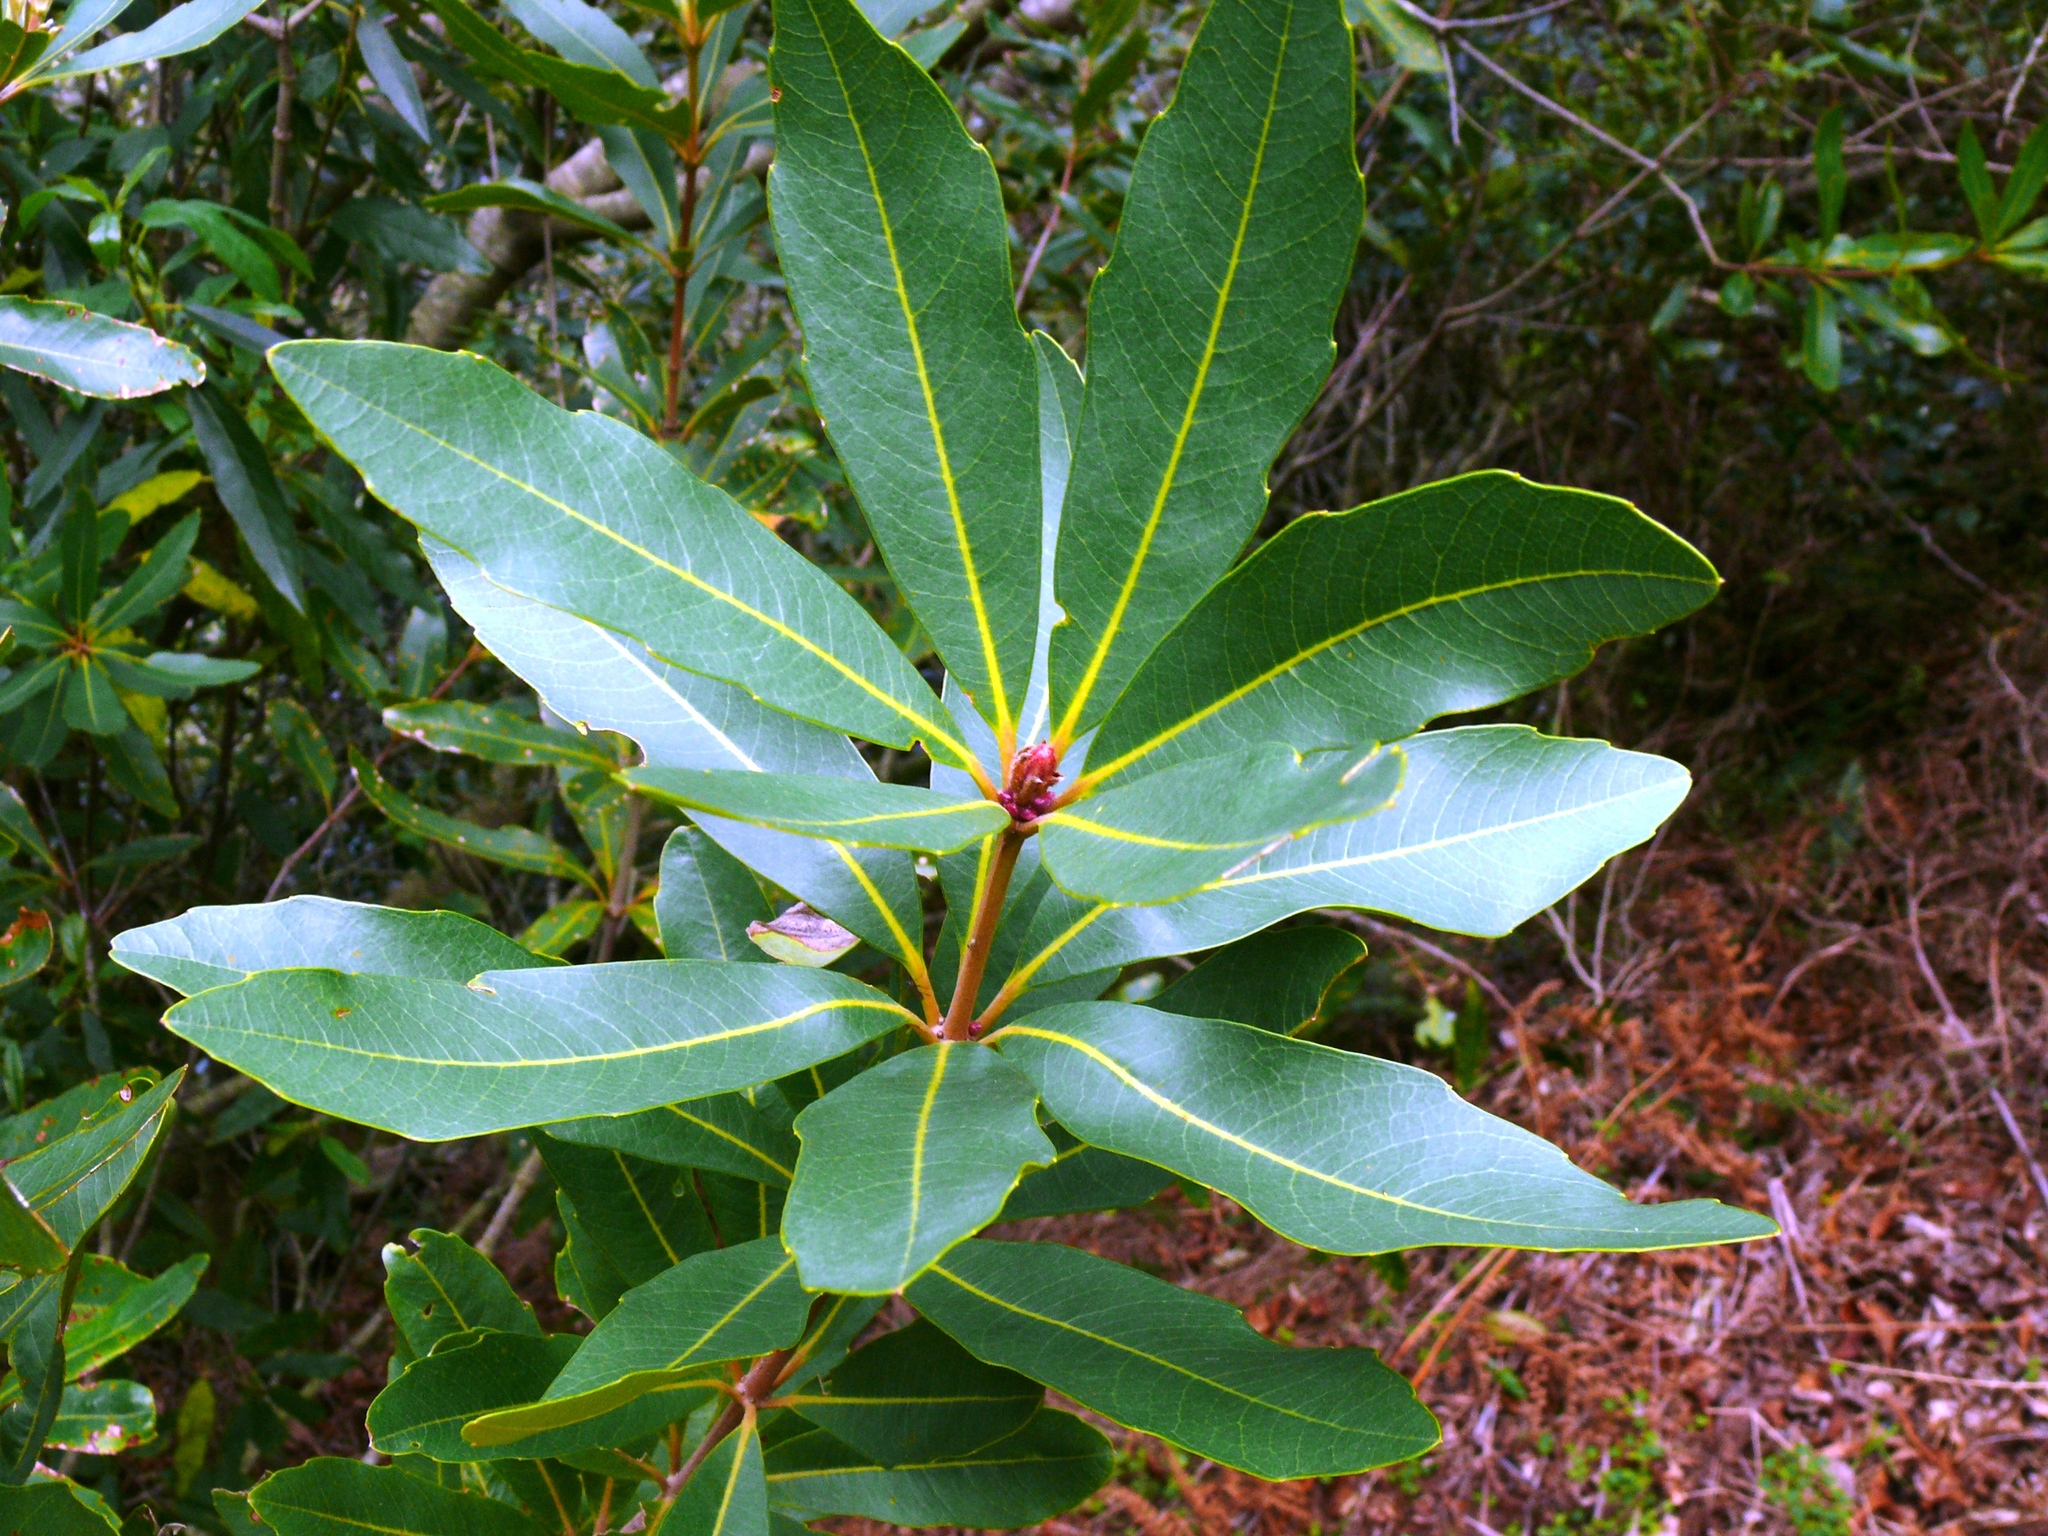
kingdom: Plantae
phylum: Tracheophyta
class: Magnoliopsida
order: Proteales
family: Proteaceae
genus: Brabejum
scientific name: Brabejum stellatifolium
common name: Wild almond
